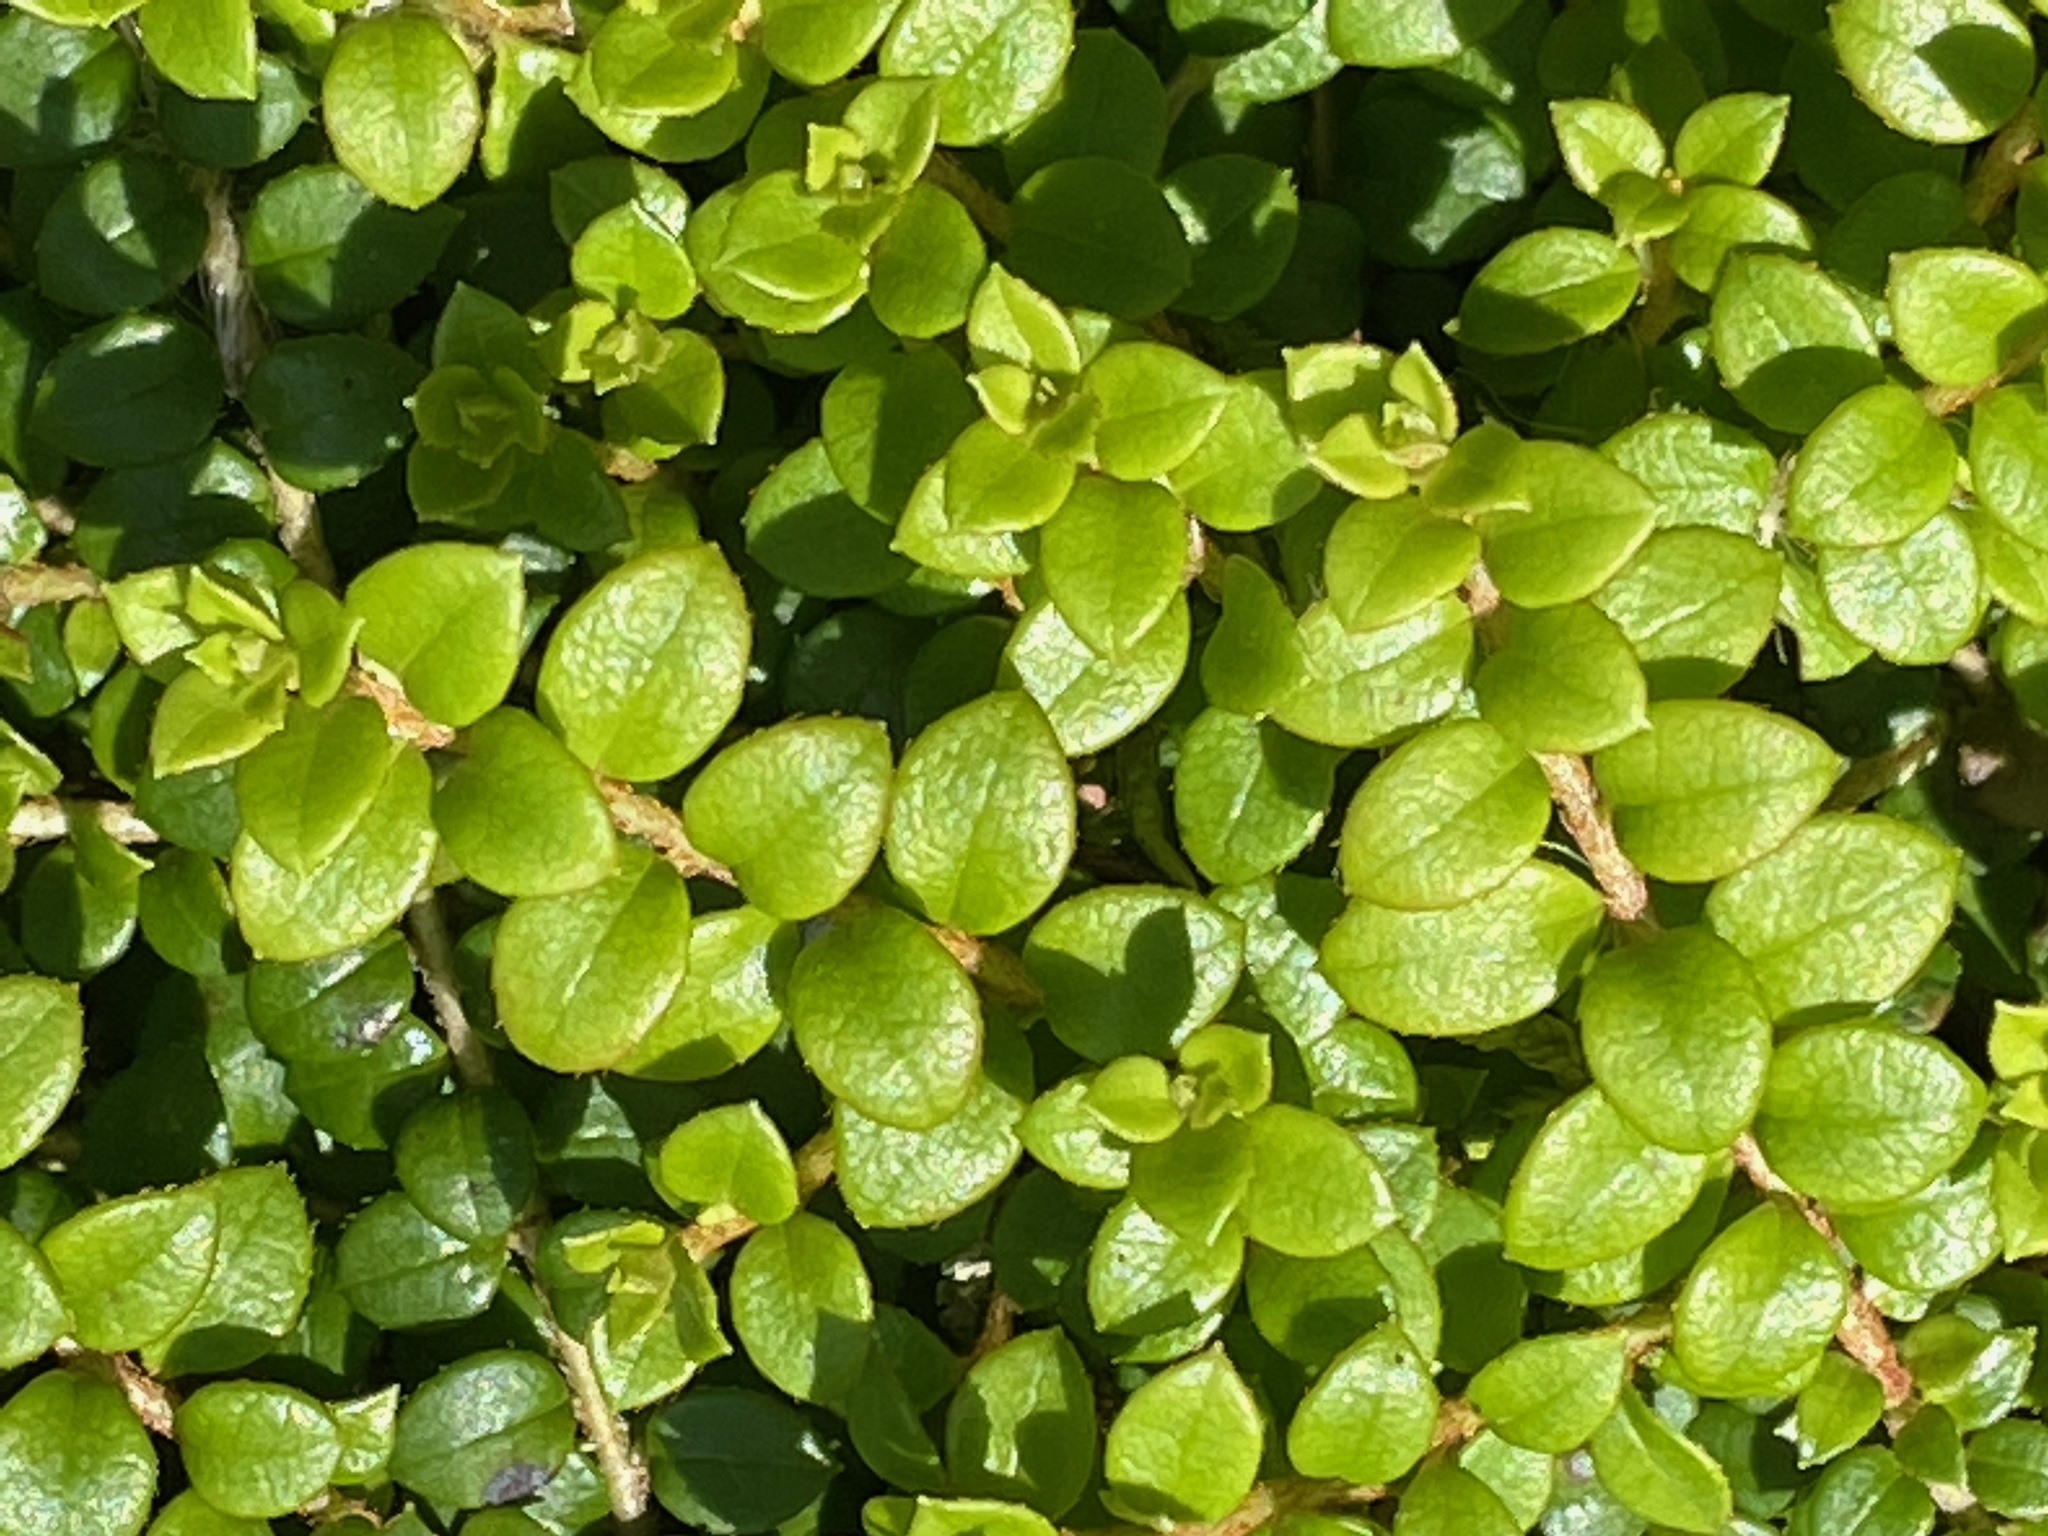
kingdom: Plantae
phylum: Tracheophyta
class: Magnoliopsida
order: Ericales
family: Ericaceae
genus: Gaultheria
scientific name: Gaultheria hispidula
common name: Cancer wintergreen
